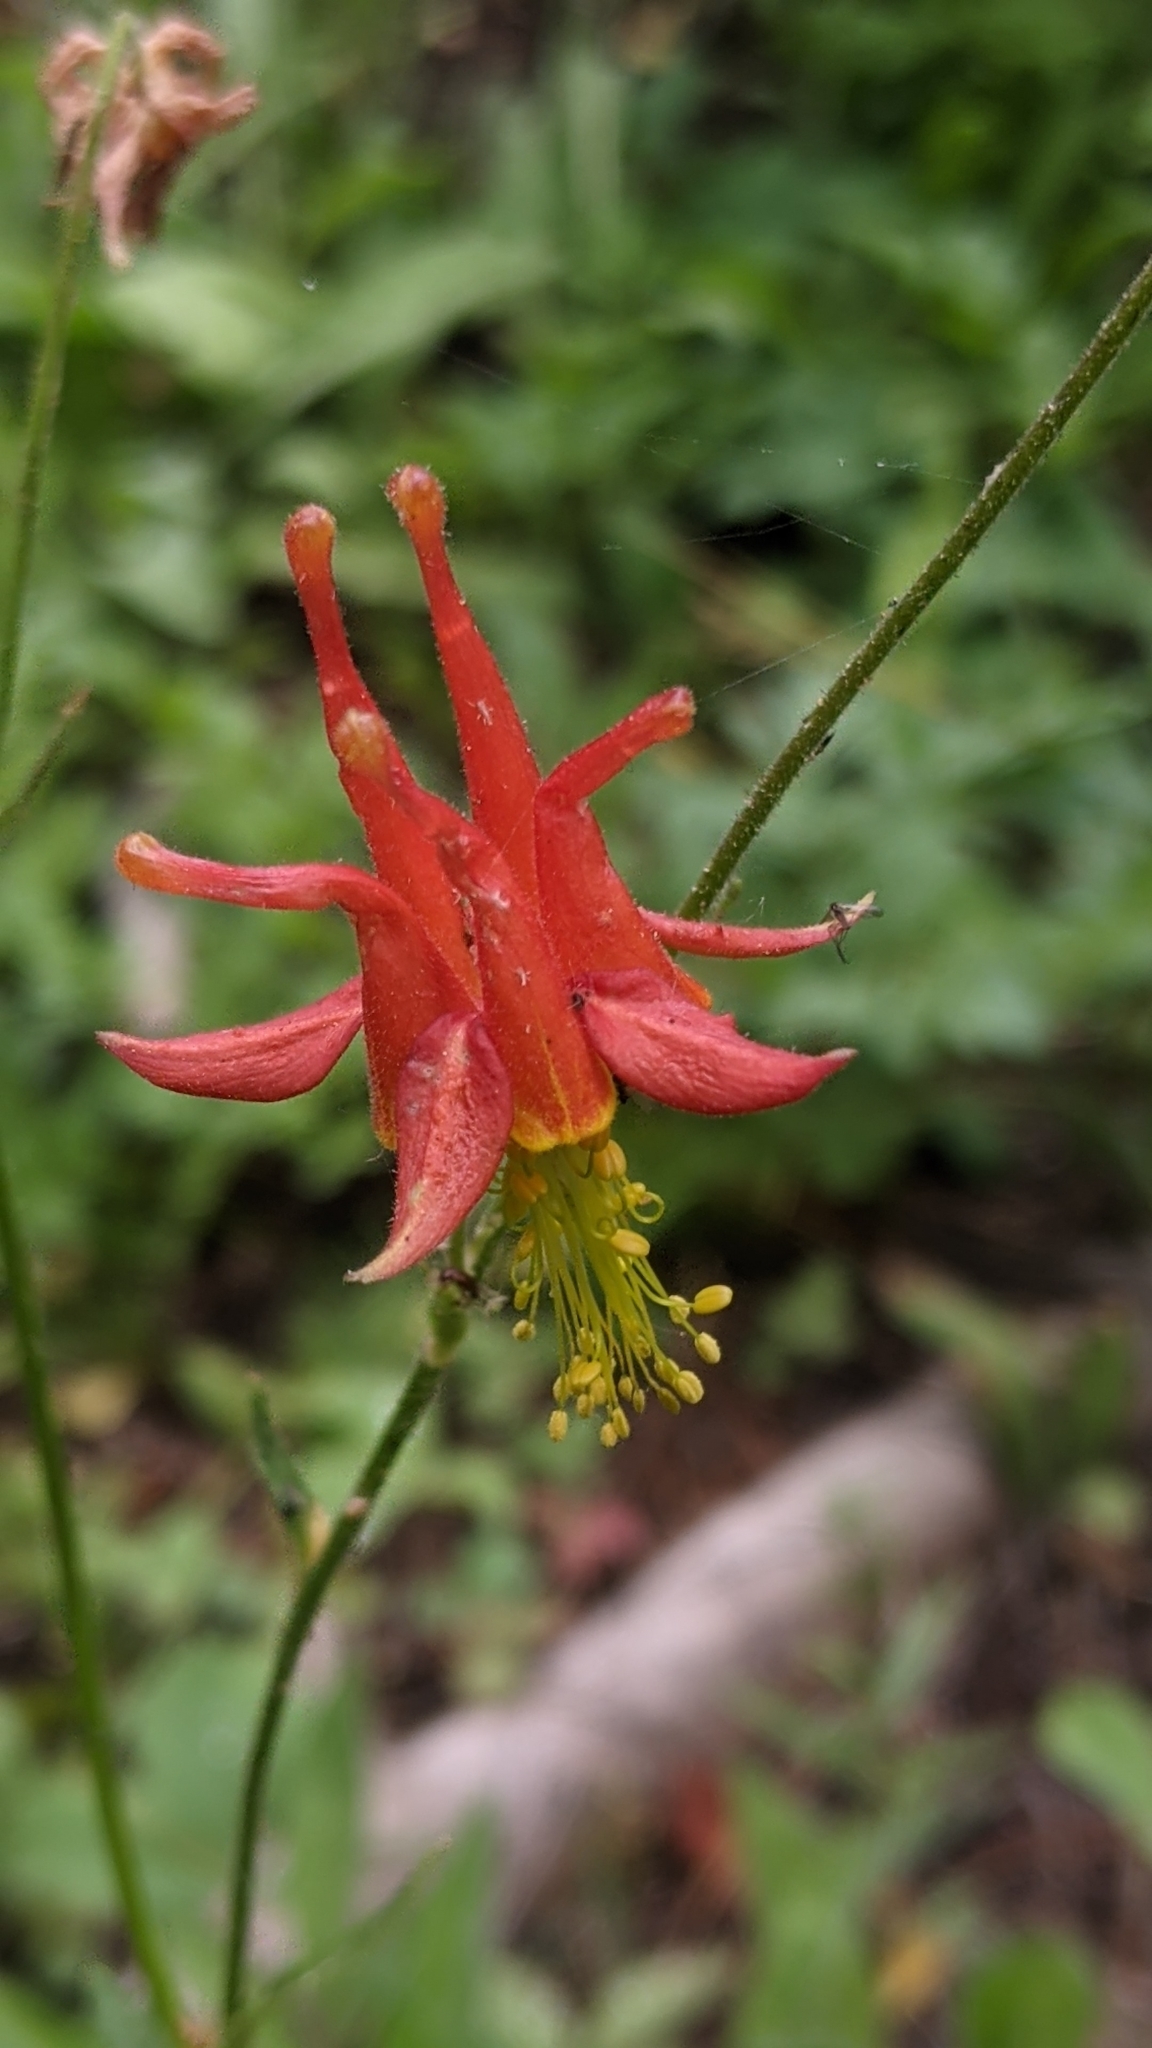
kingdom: Plantae
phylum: Tracheophyta
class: Magnoliopsida
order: Ranunculales
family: Ranunculaceae
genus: Aquilegia
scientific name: Aquilegia formosa
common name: Sitka columbine
